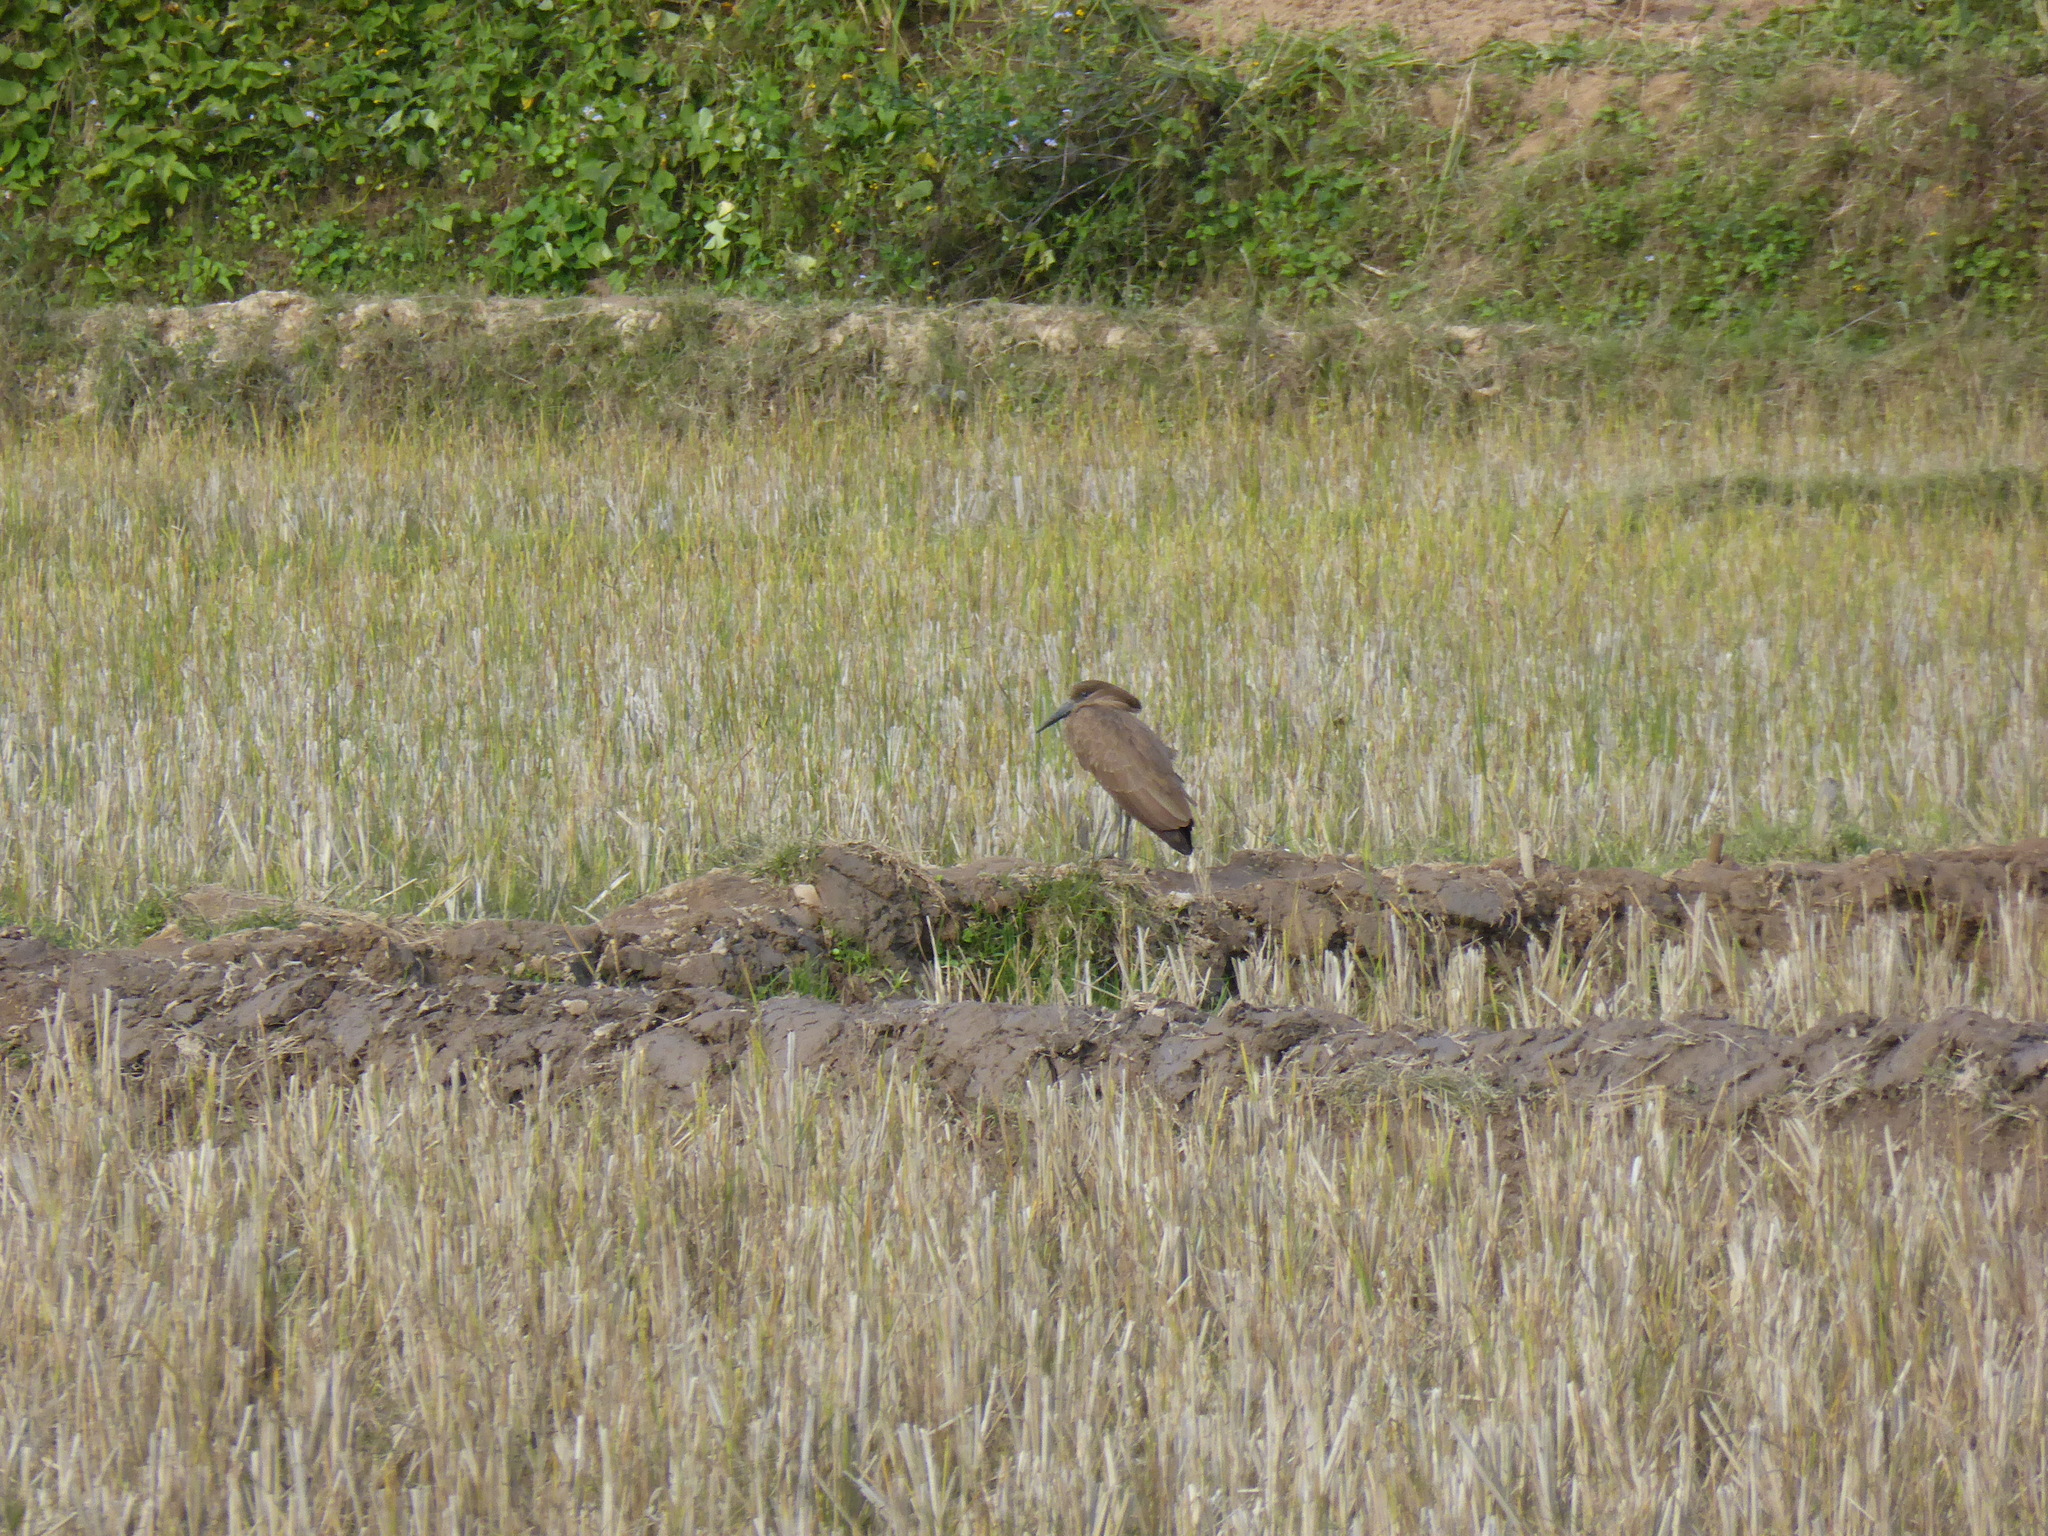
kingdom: Animalia
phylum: Chordata
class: Aves
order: Pelecaniformes
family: Scopidae
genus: Scopus
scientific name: Scopus umbretta
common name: Hamerkop
